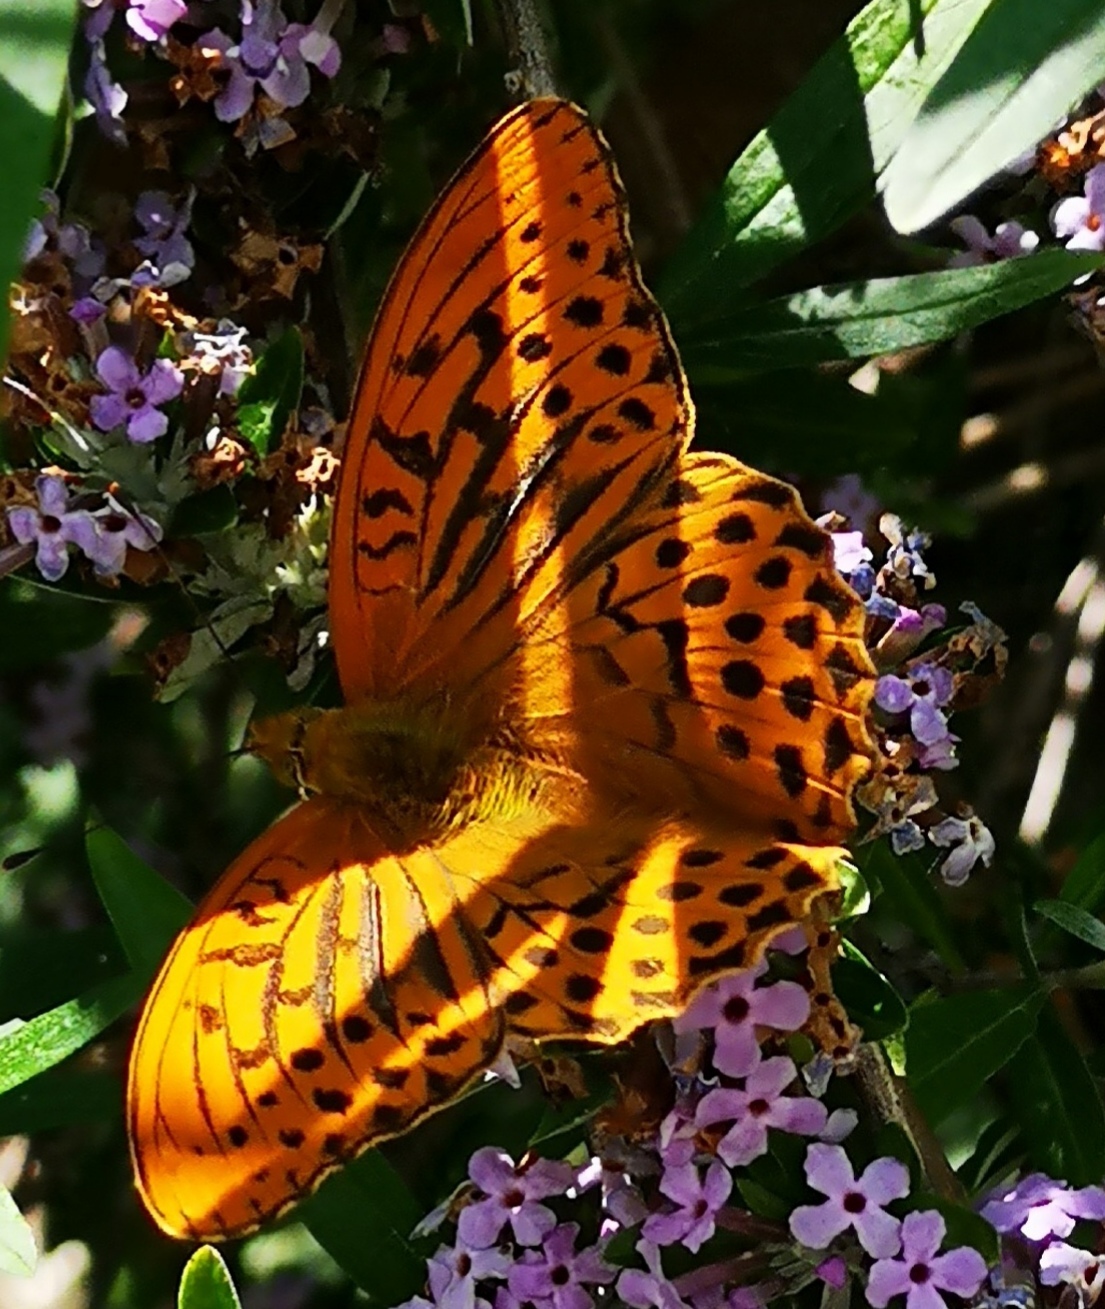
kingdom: Animalia
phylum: Arthropoda
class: Insecta
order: Lepidoptera
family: Nymphalidae
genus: Argynnis
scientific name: Argynnis paphia
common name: Silver-washed fritillary
